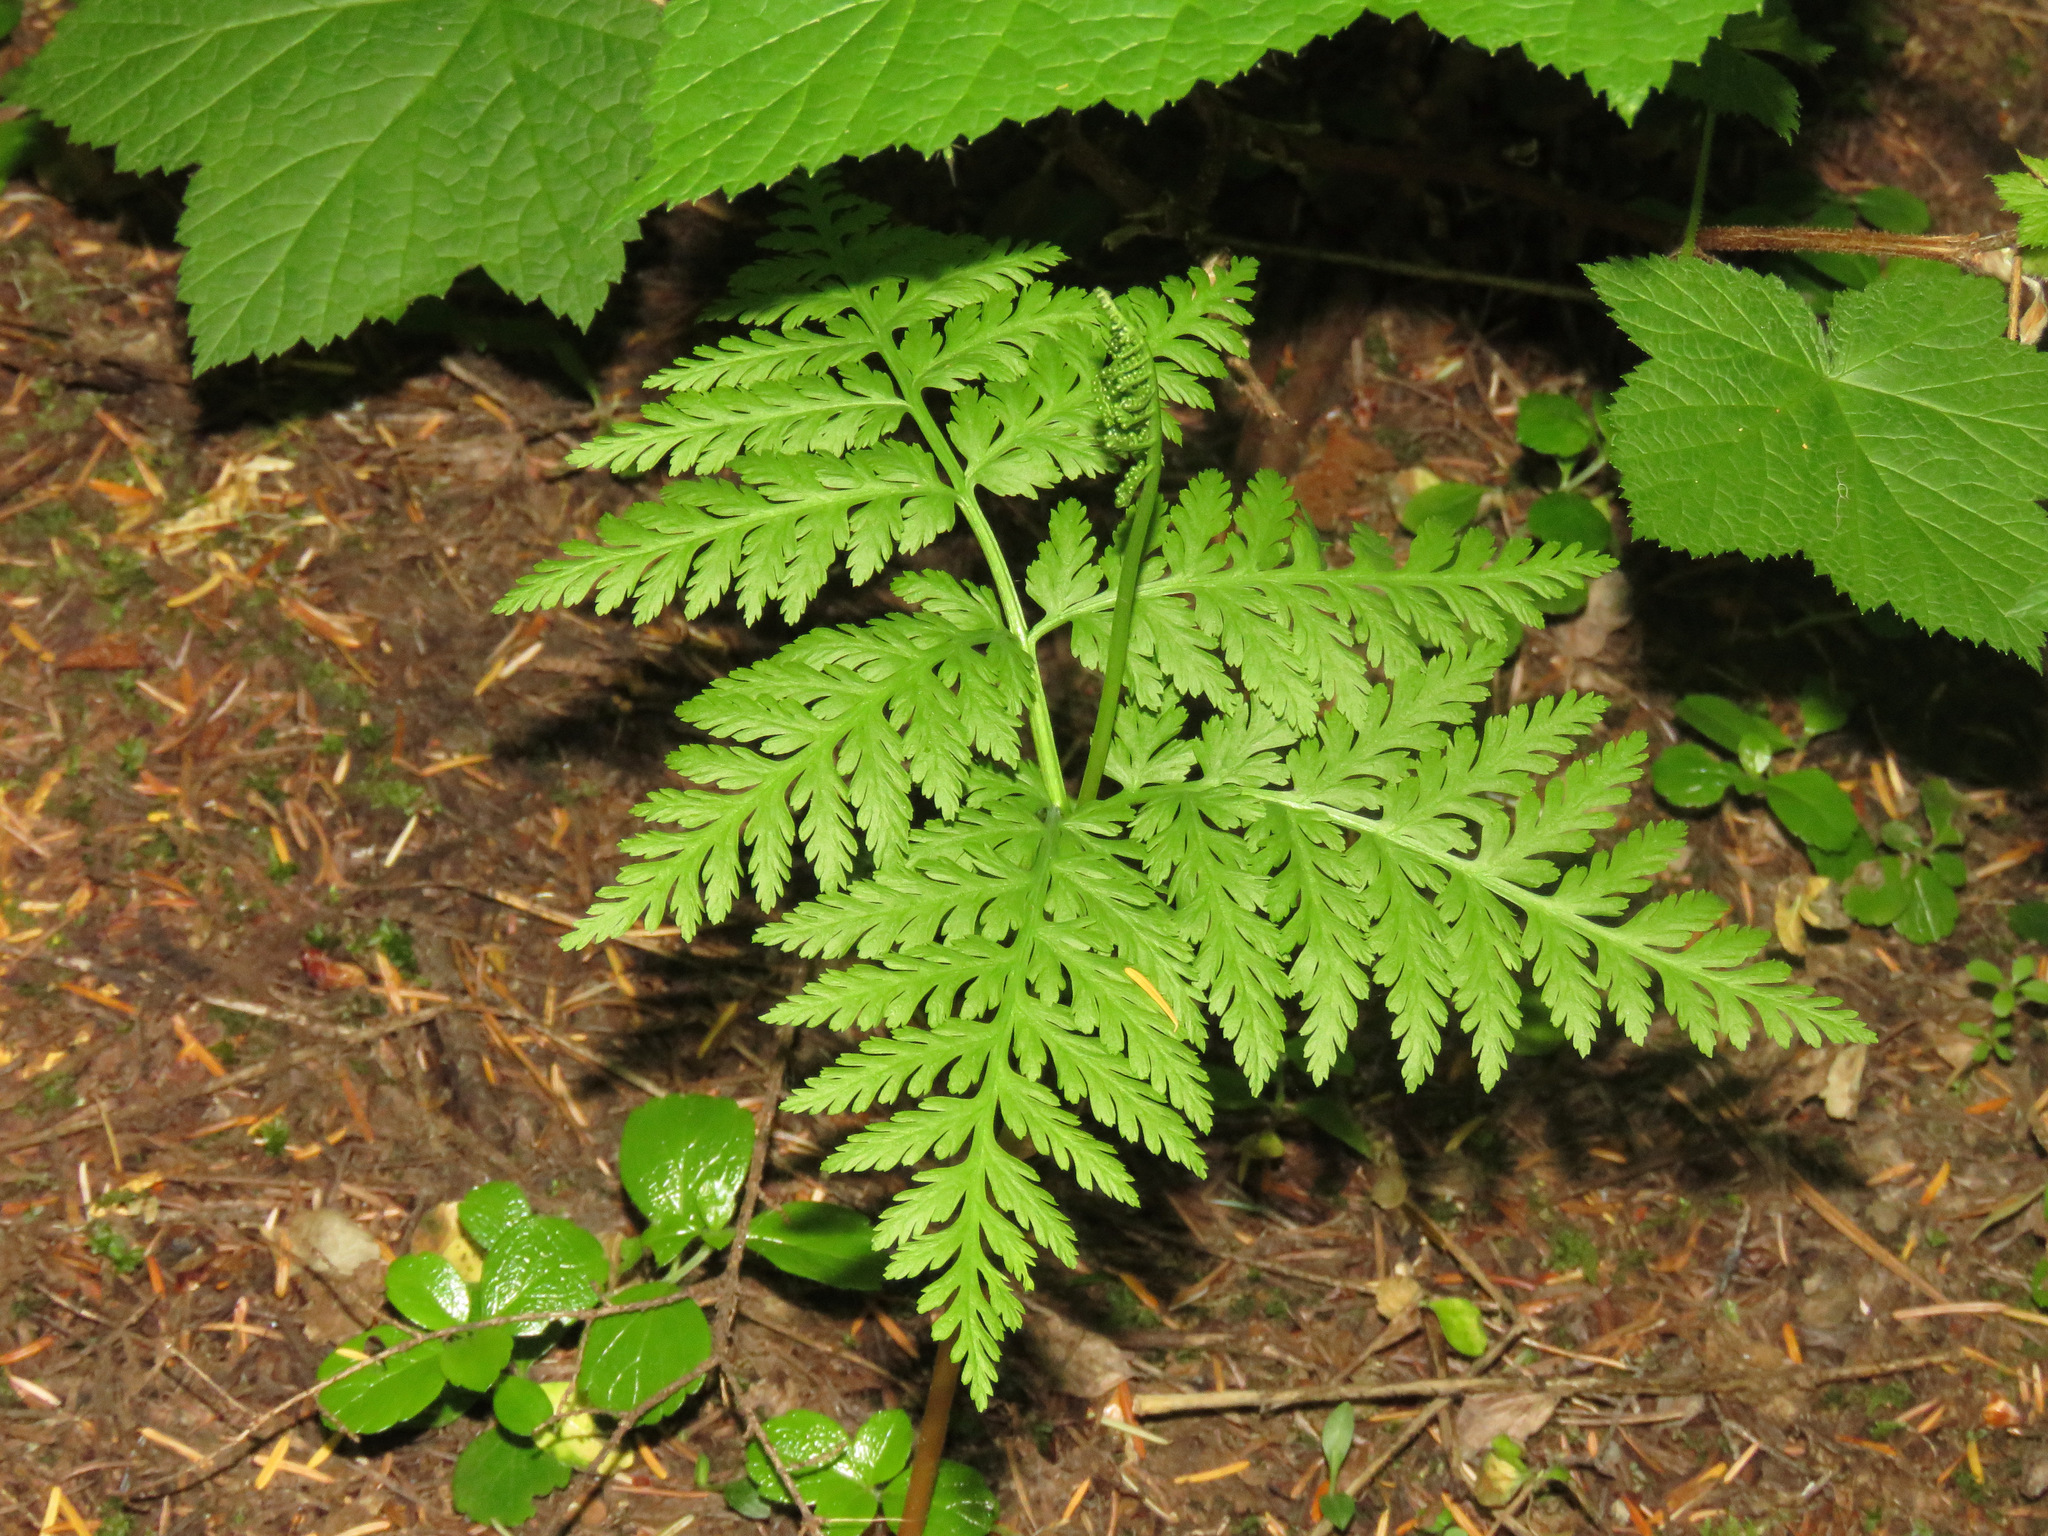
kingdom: Plantae
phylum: Tracheophyta
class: Polypodiopsida
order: Ophioglossales
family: Ophioglossaceae
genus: Botrypus
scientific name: Botrypus virginianus
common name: Common grapefern
